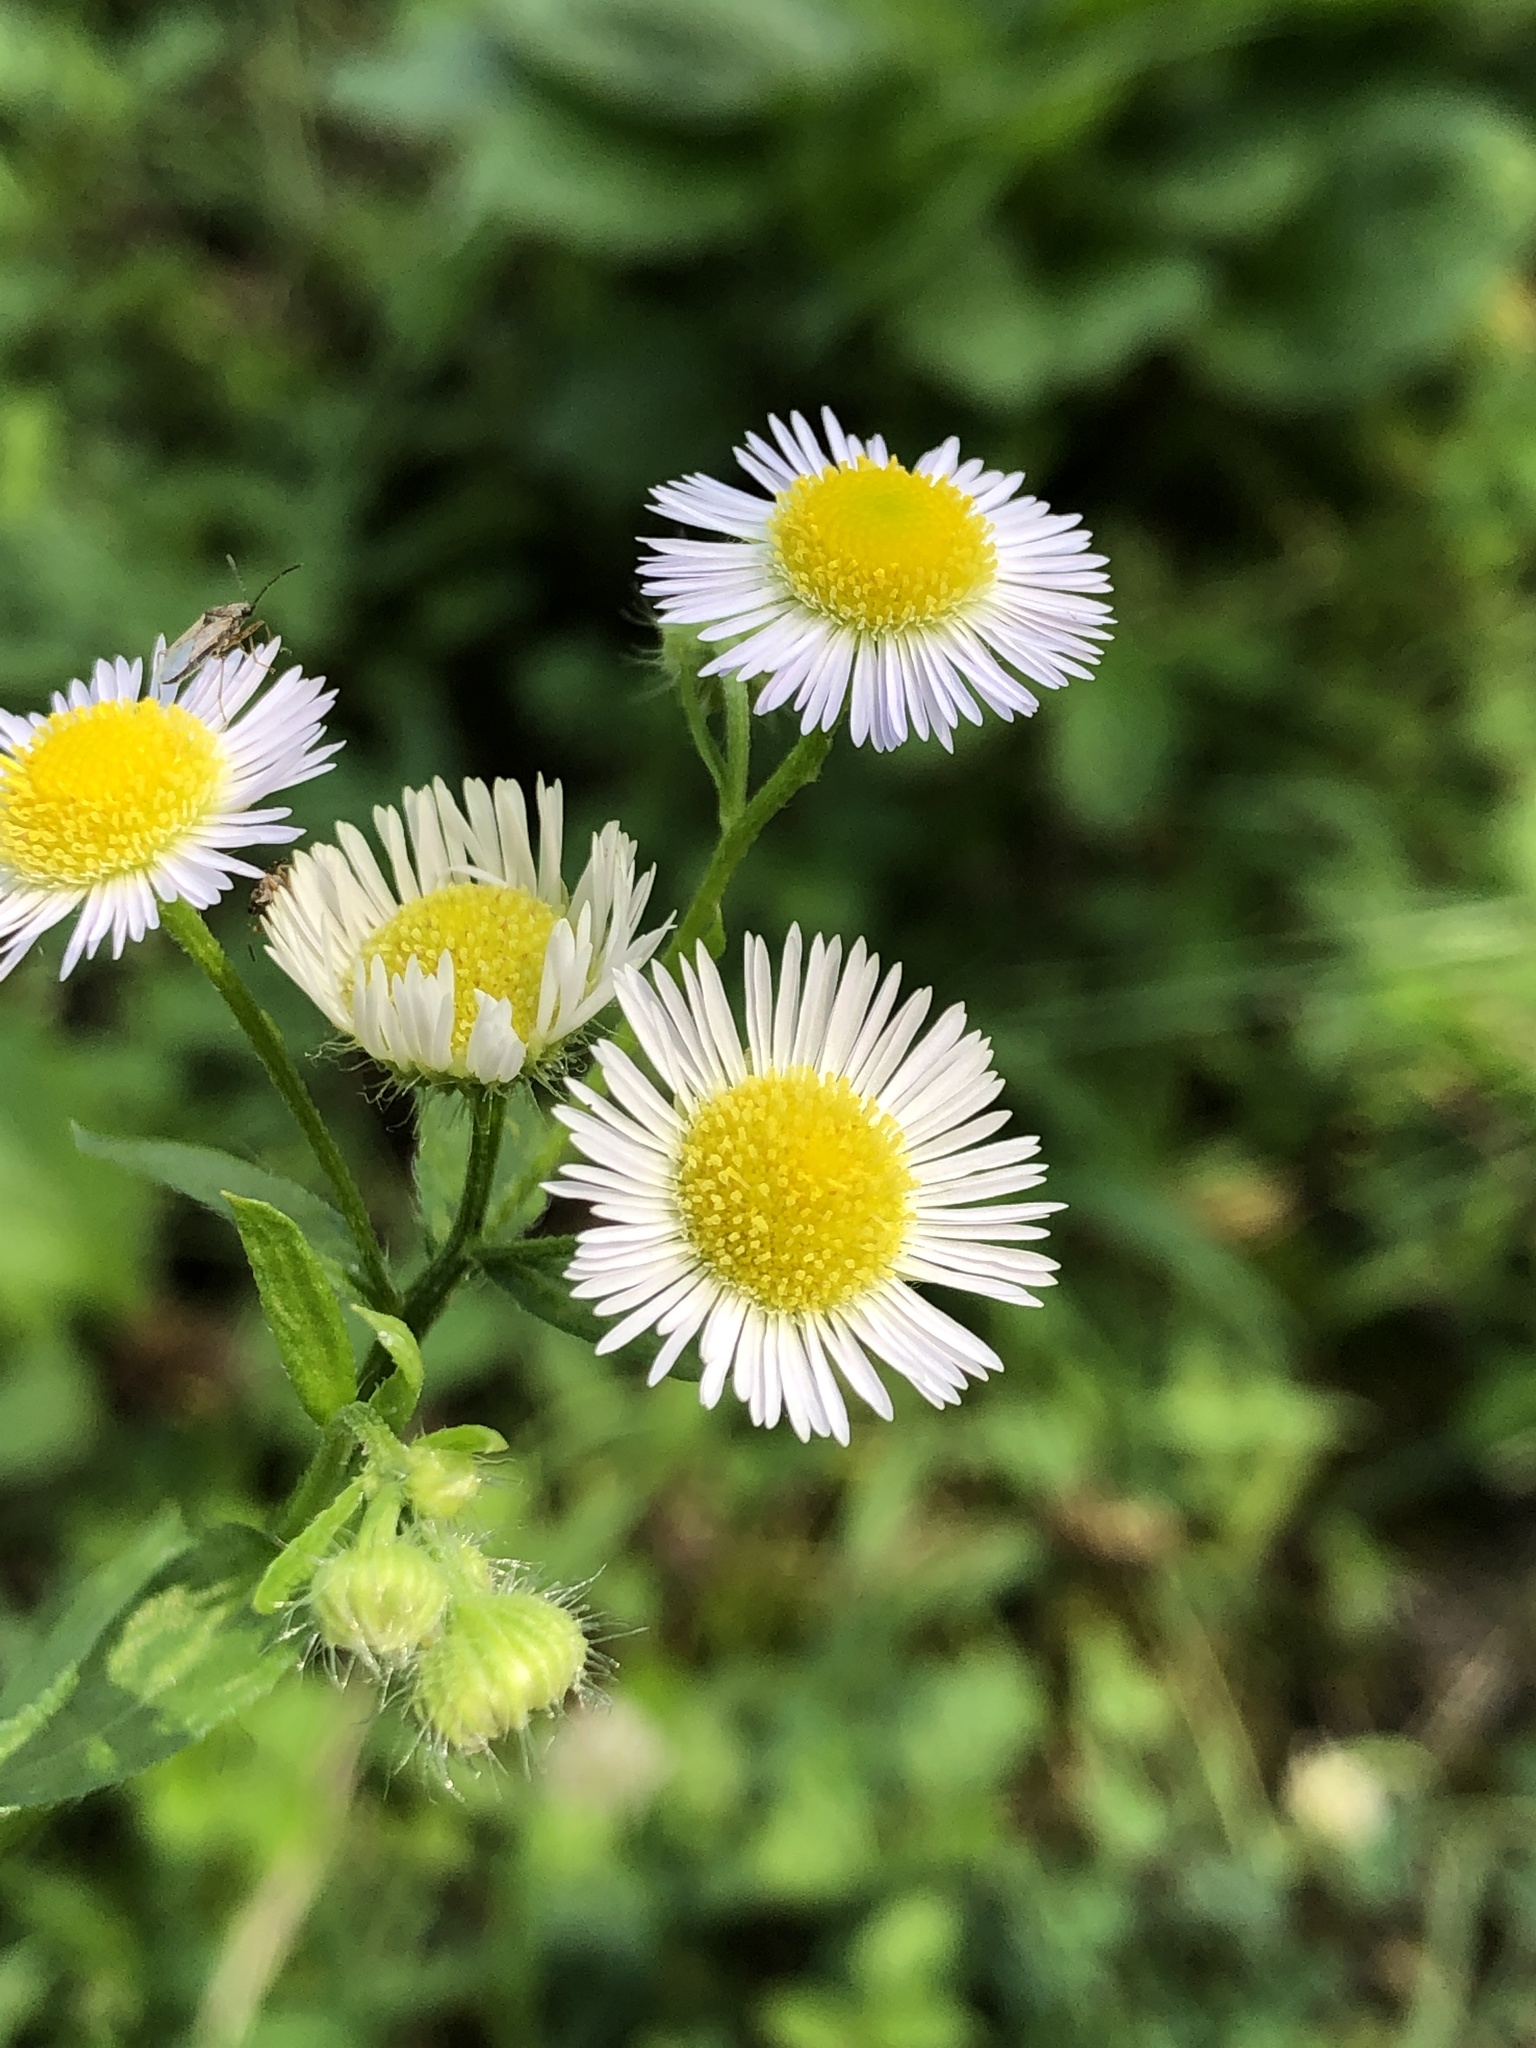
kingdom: Plantae
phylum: Tracheophyta
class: Magnoliopsida
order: Asterales
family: Asteraceae
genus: Erigeron
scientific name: Erigeron annuus
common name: Tall fleabane
